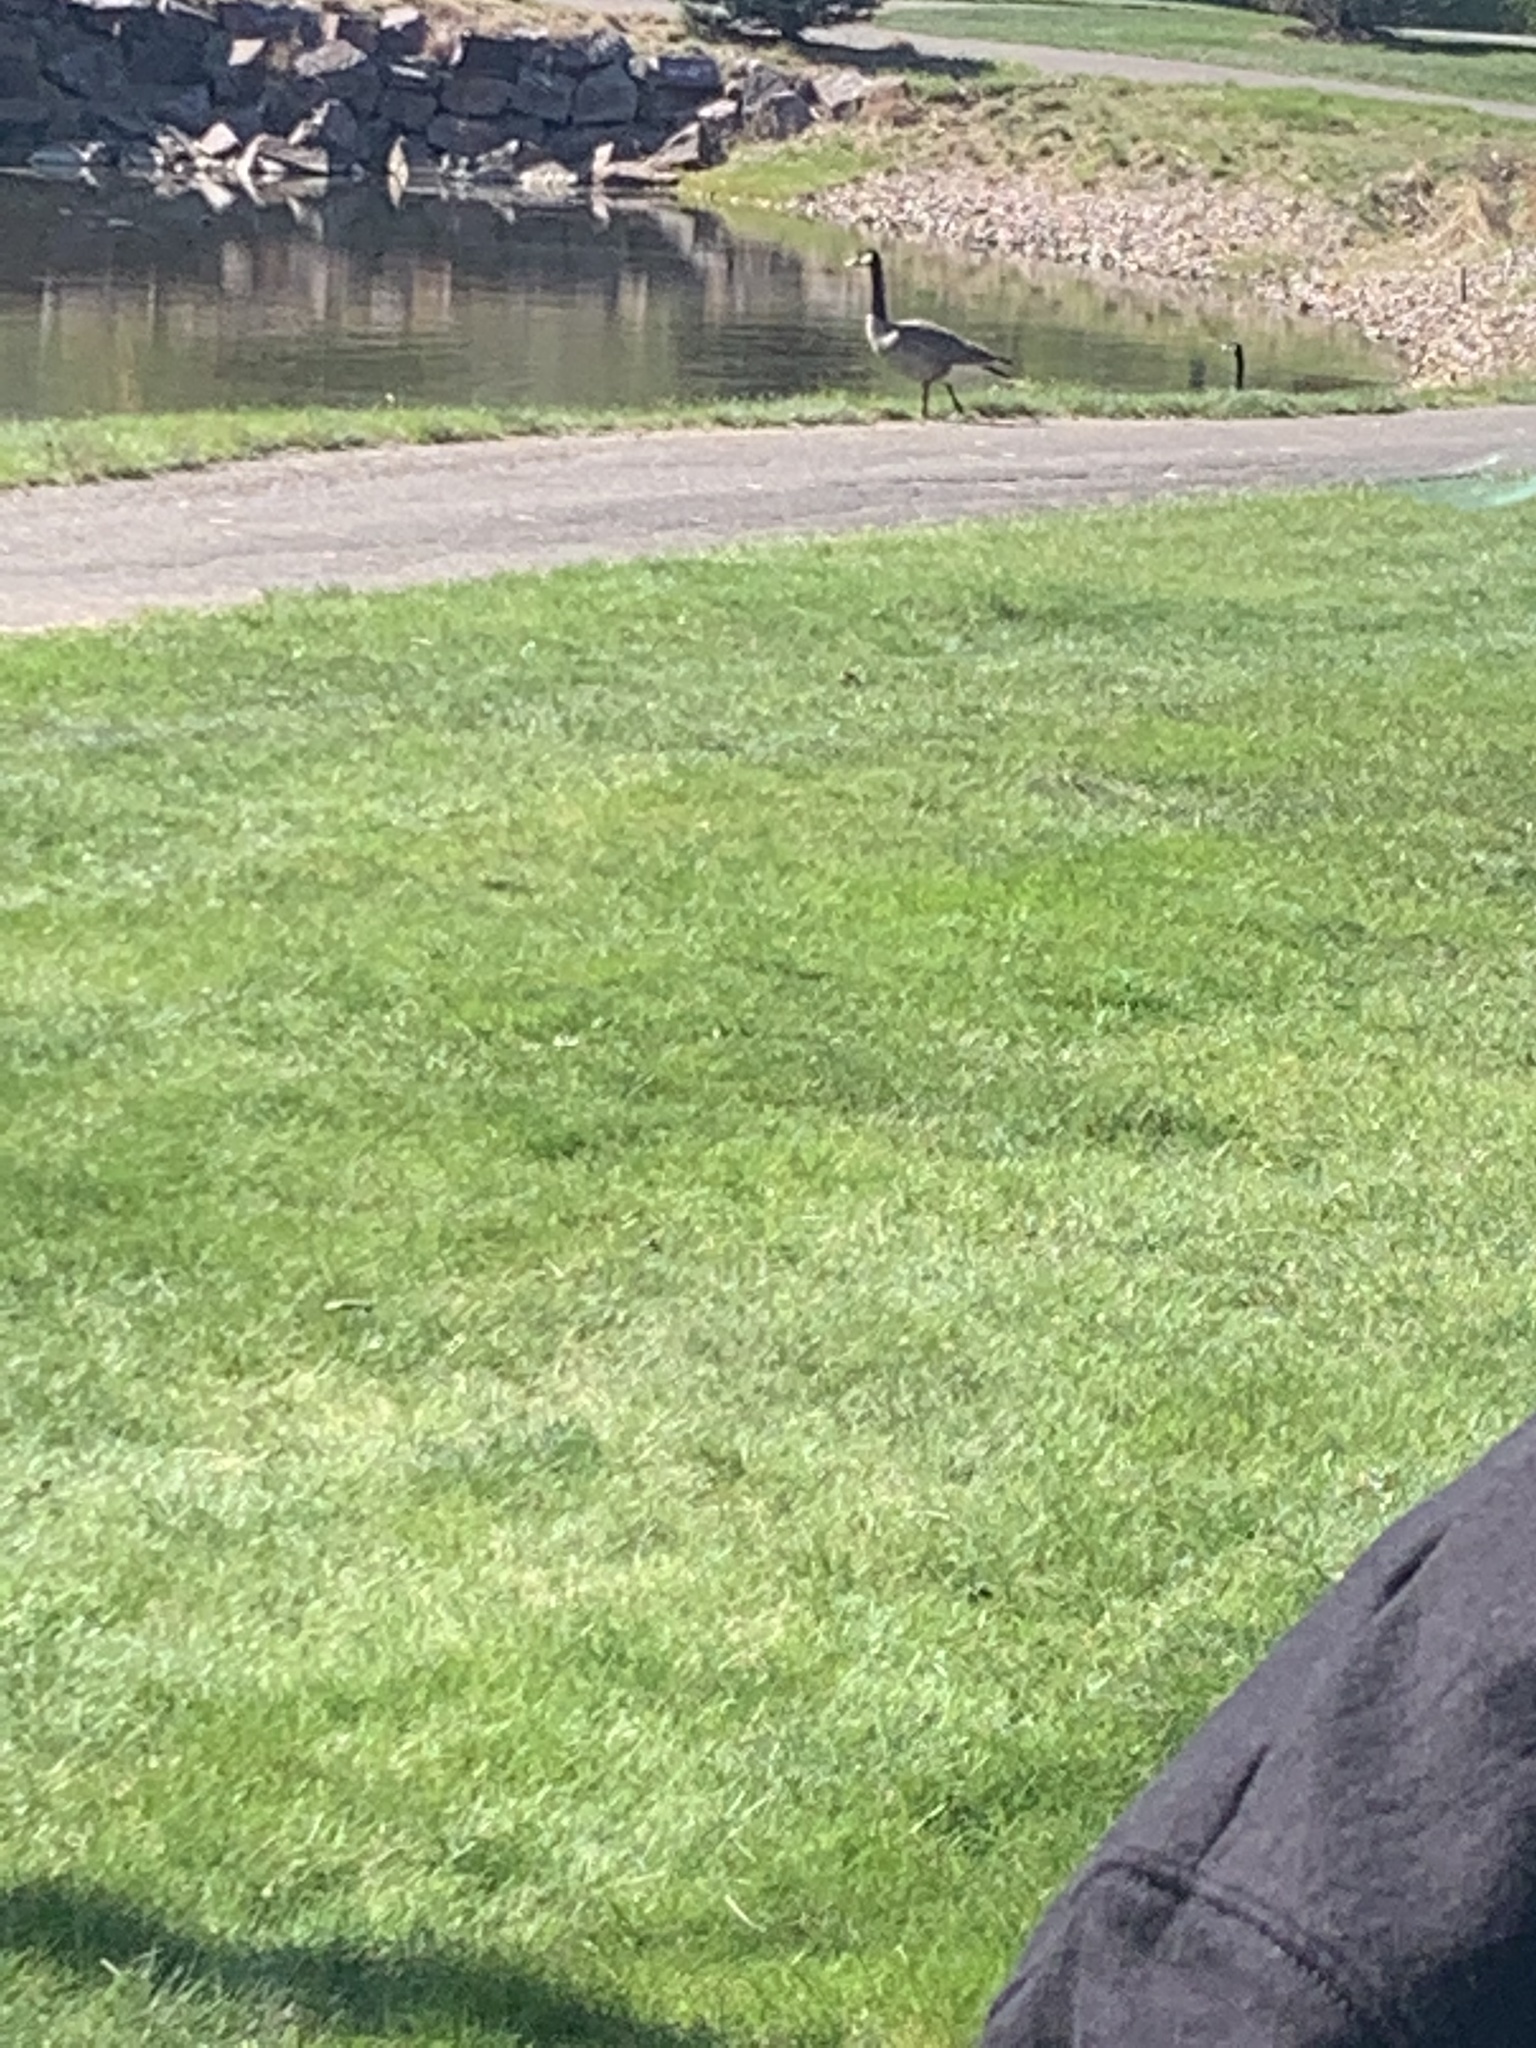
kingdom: Animalia
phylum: Chordata
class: Aves
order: Anseriformes
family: Anatidae
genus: Branta
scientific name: Branta canadensis
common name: Canada goose
